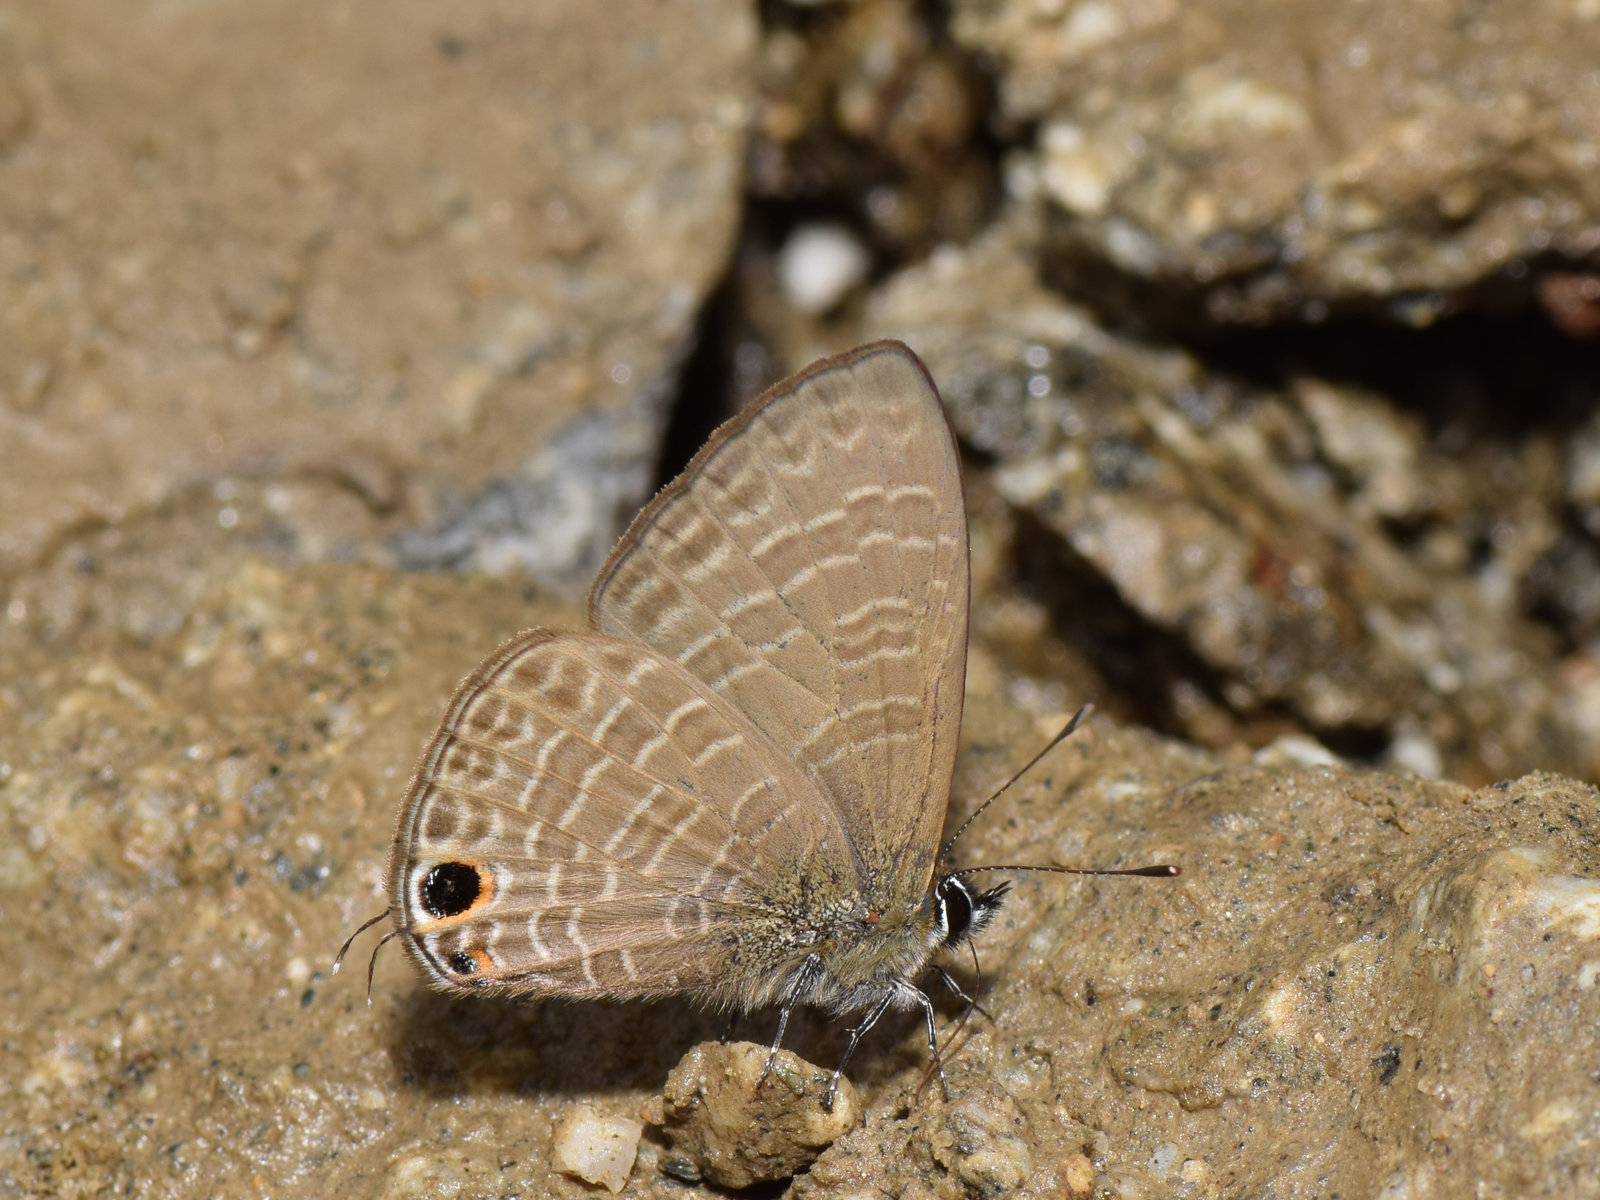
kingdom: Animalia
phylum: Arthropoda
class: Insecta
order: Lepidoptera
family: Lycaenidae
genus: Nacaduba
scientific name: Nacaduba beroe
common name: Opaque sixline blue
